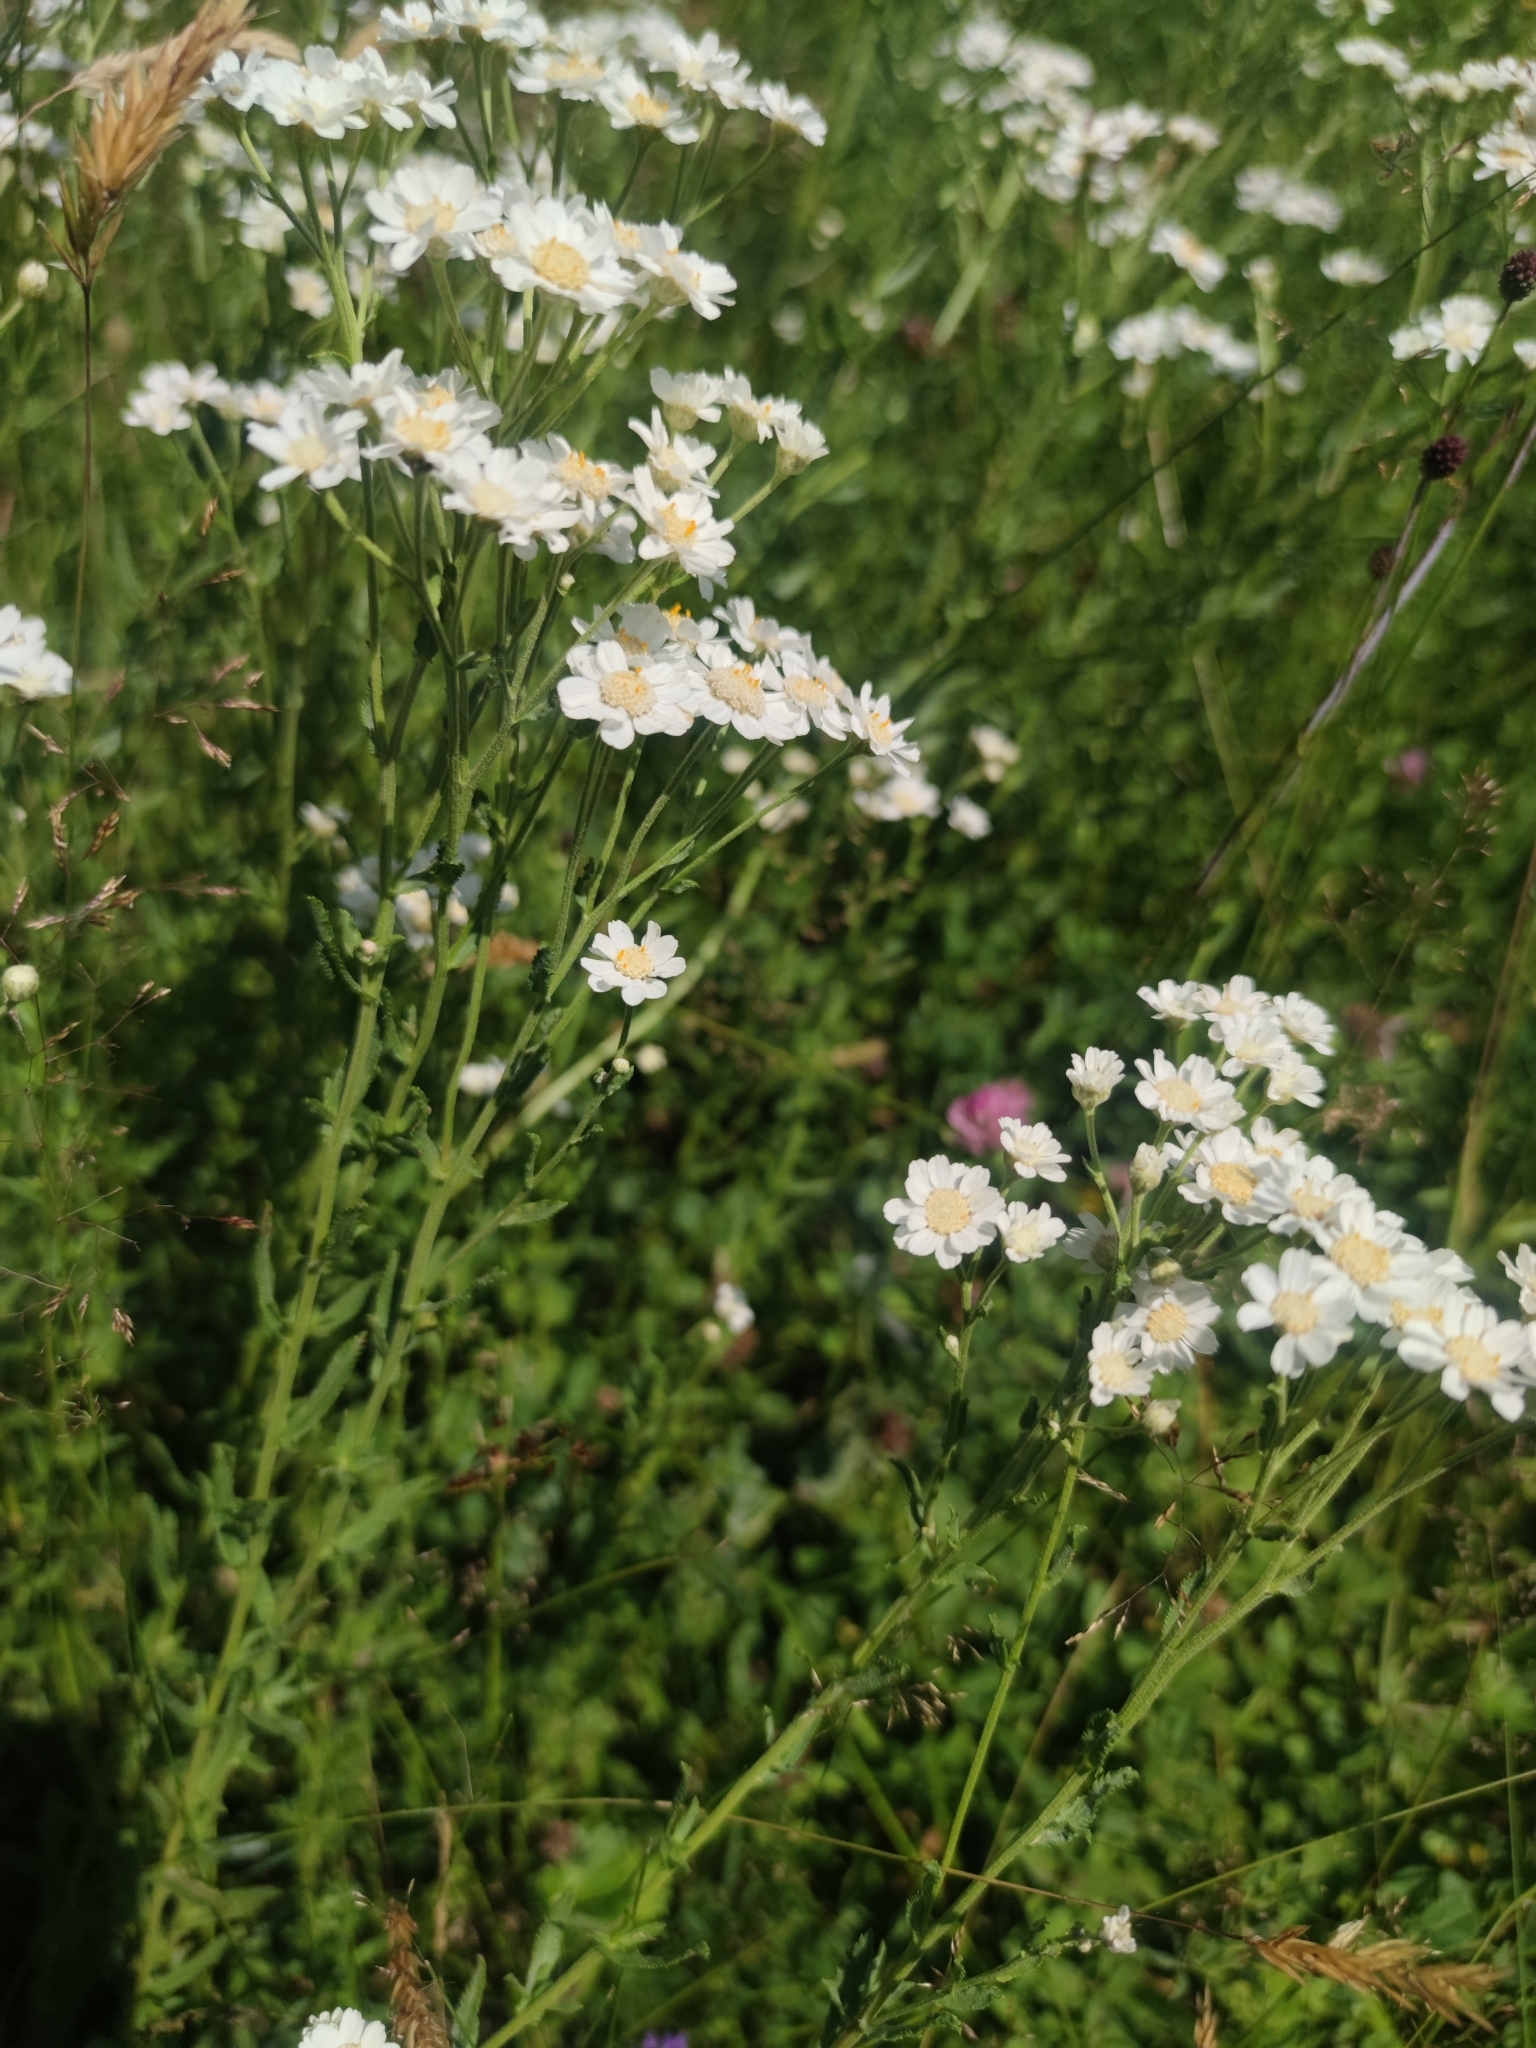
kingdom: Plantae
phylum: Tracheophyta
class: Magnoliopsida
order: Asterales
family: Asteraceae
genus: Achillea
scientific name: Achillea pyrenaica
